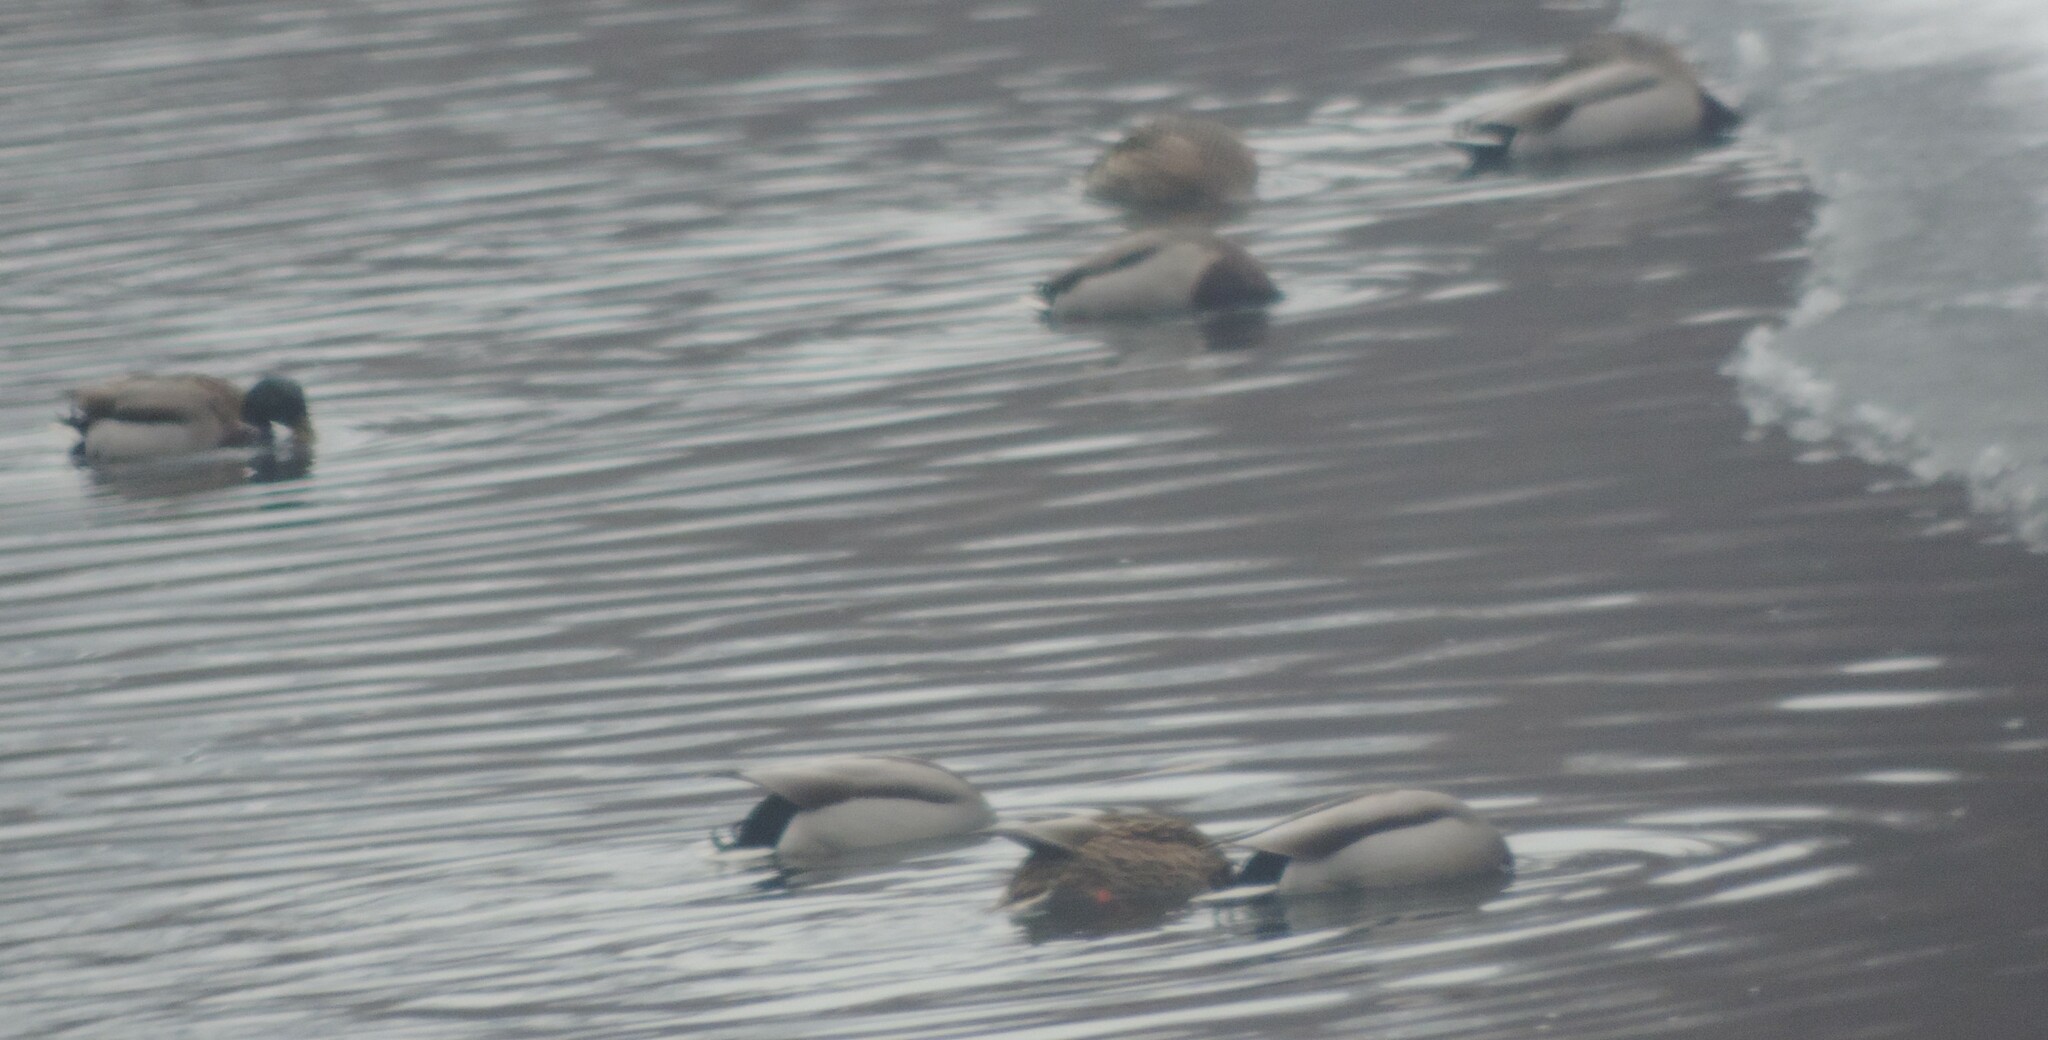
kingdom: Animalia
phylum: Chordata
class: Aves
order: Anseriformes
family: Anatidae
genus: Anas
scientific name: Anas platyrhynchos
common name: Mallard
